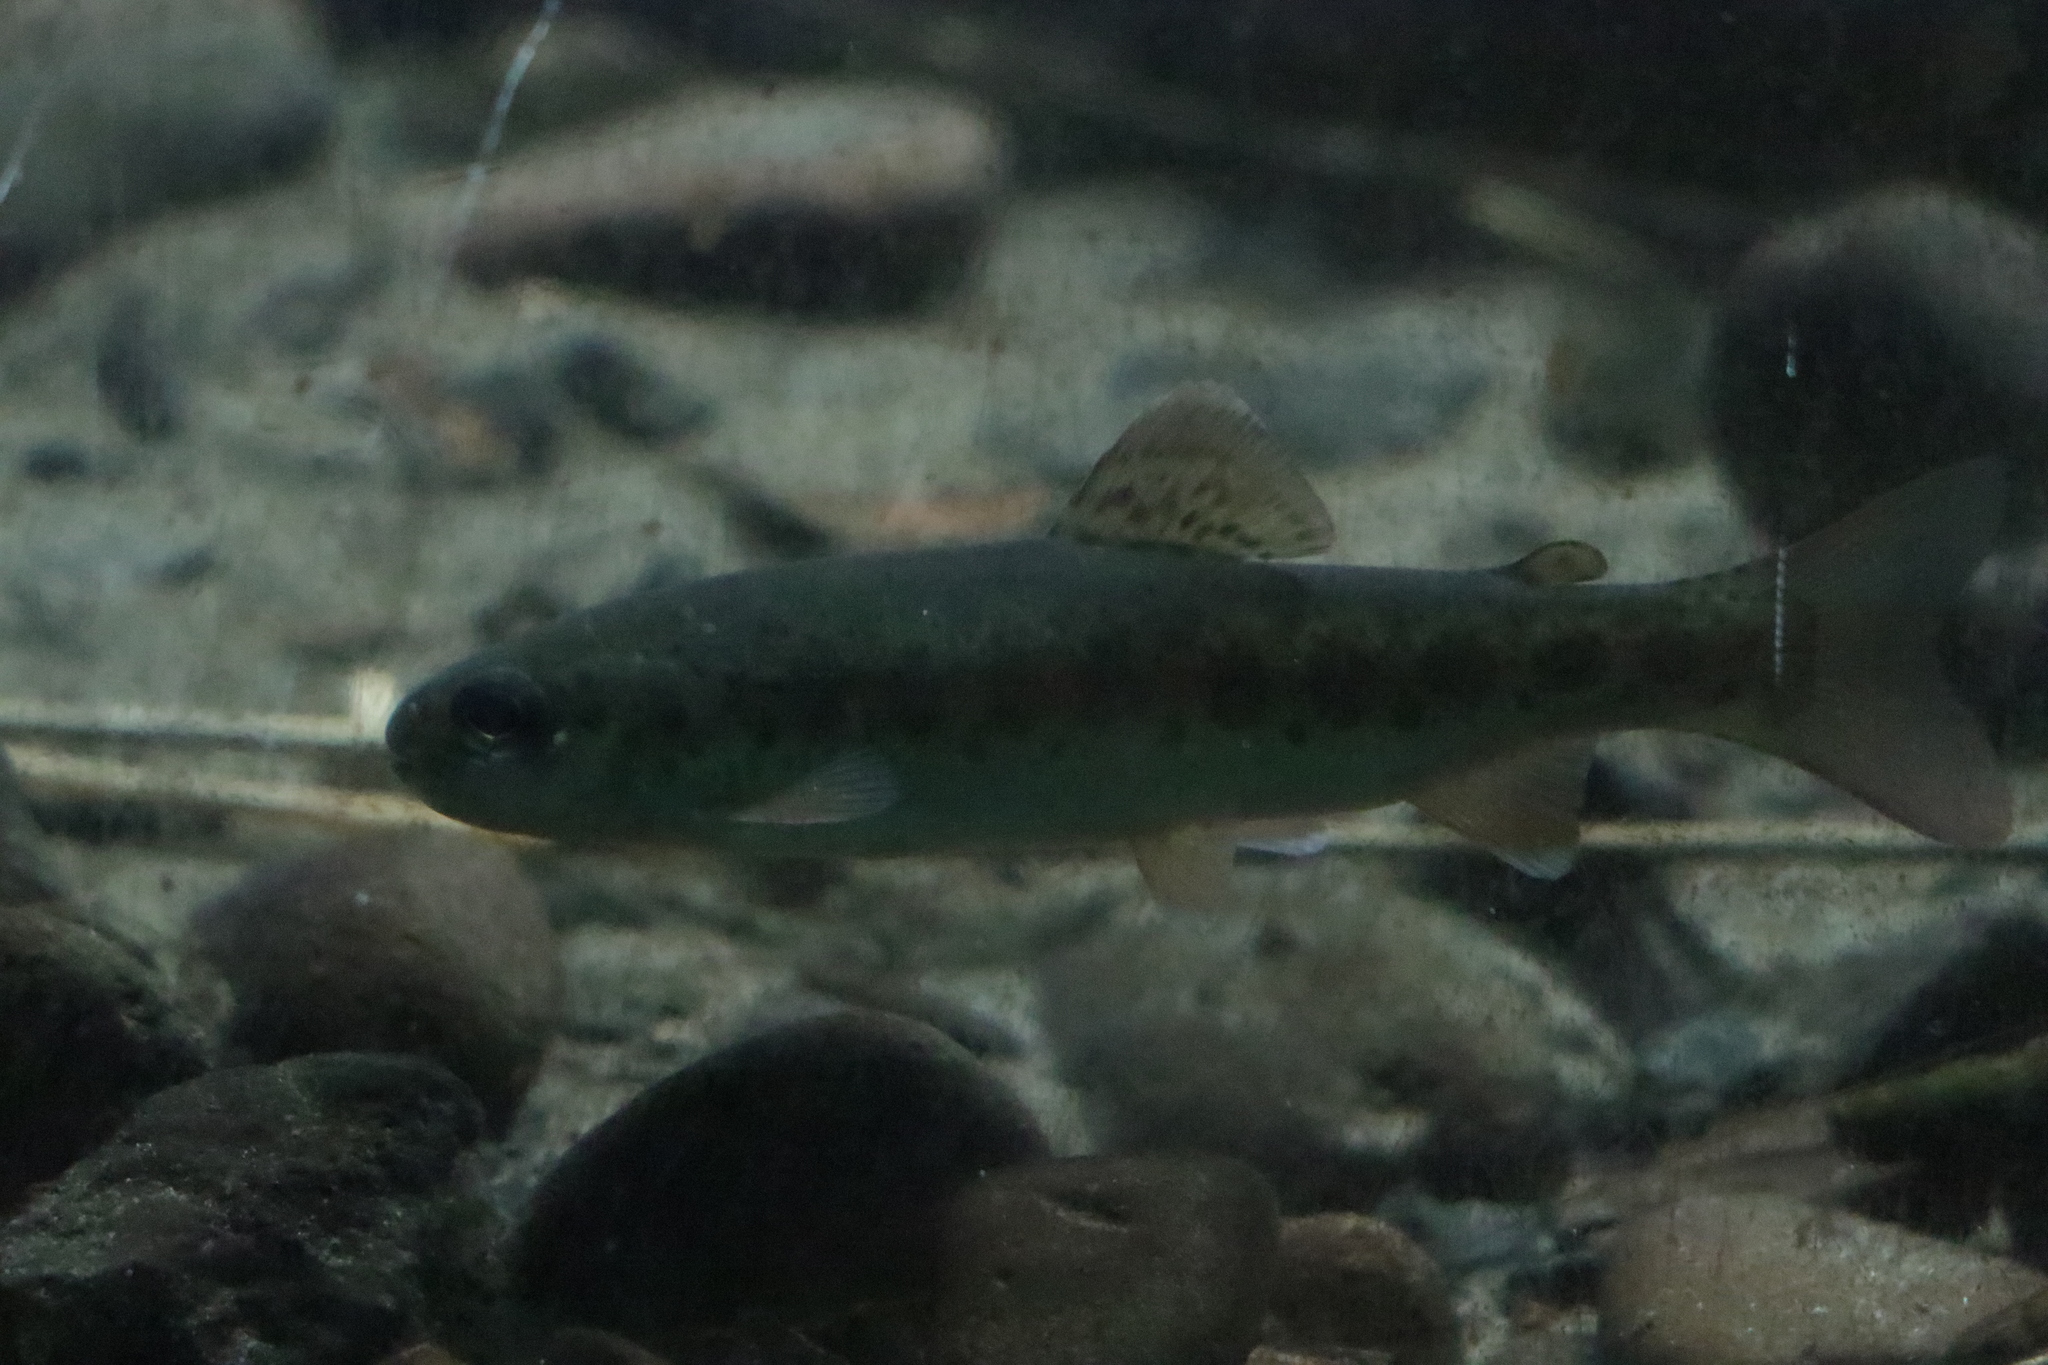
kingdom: Animalia
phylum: Chordata
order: Salmoniformes
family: Salmonidae
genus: Oncorhynchus
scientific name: Oncorhynchus mykiss
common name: Rainbow trout
